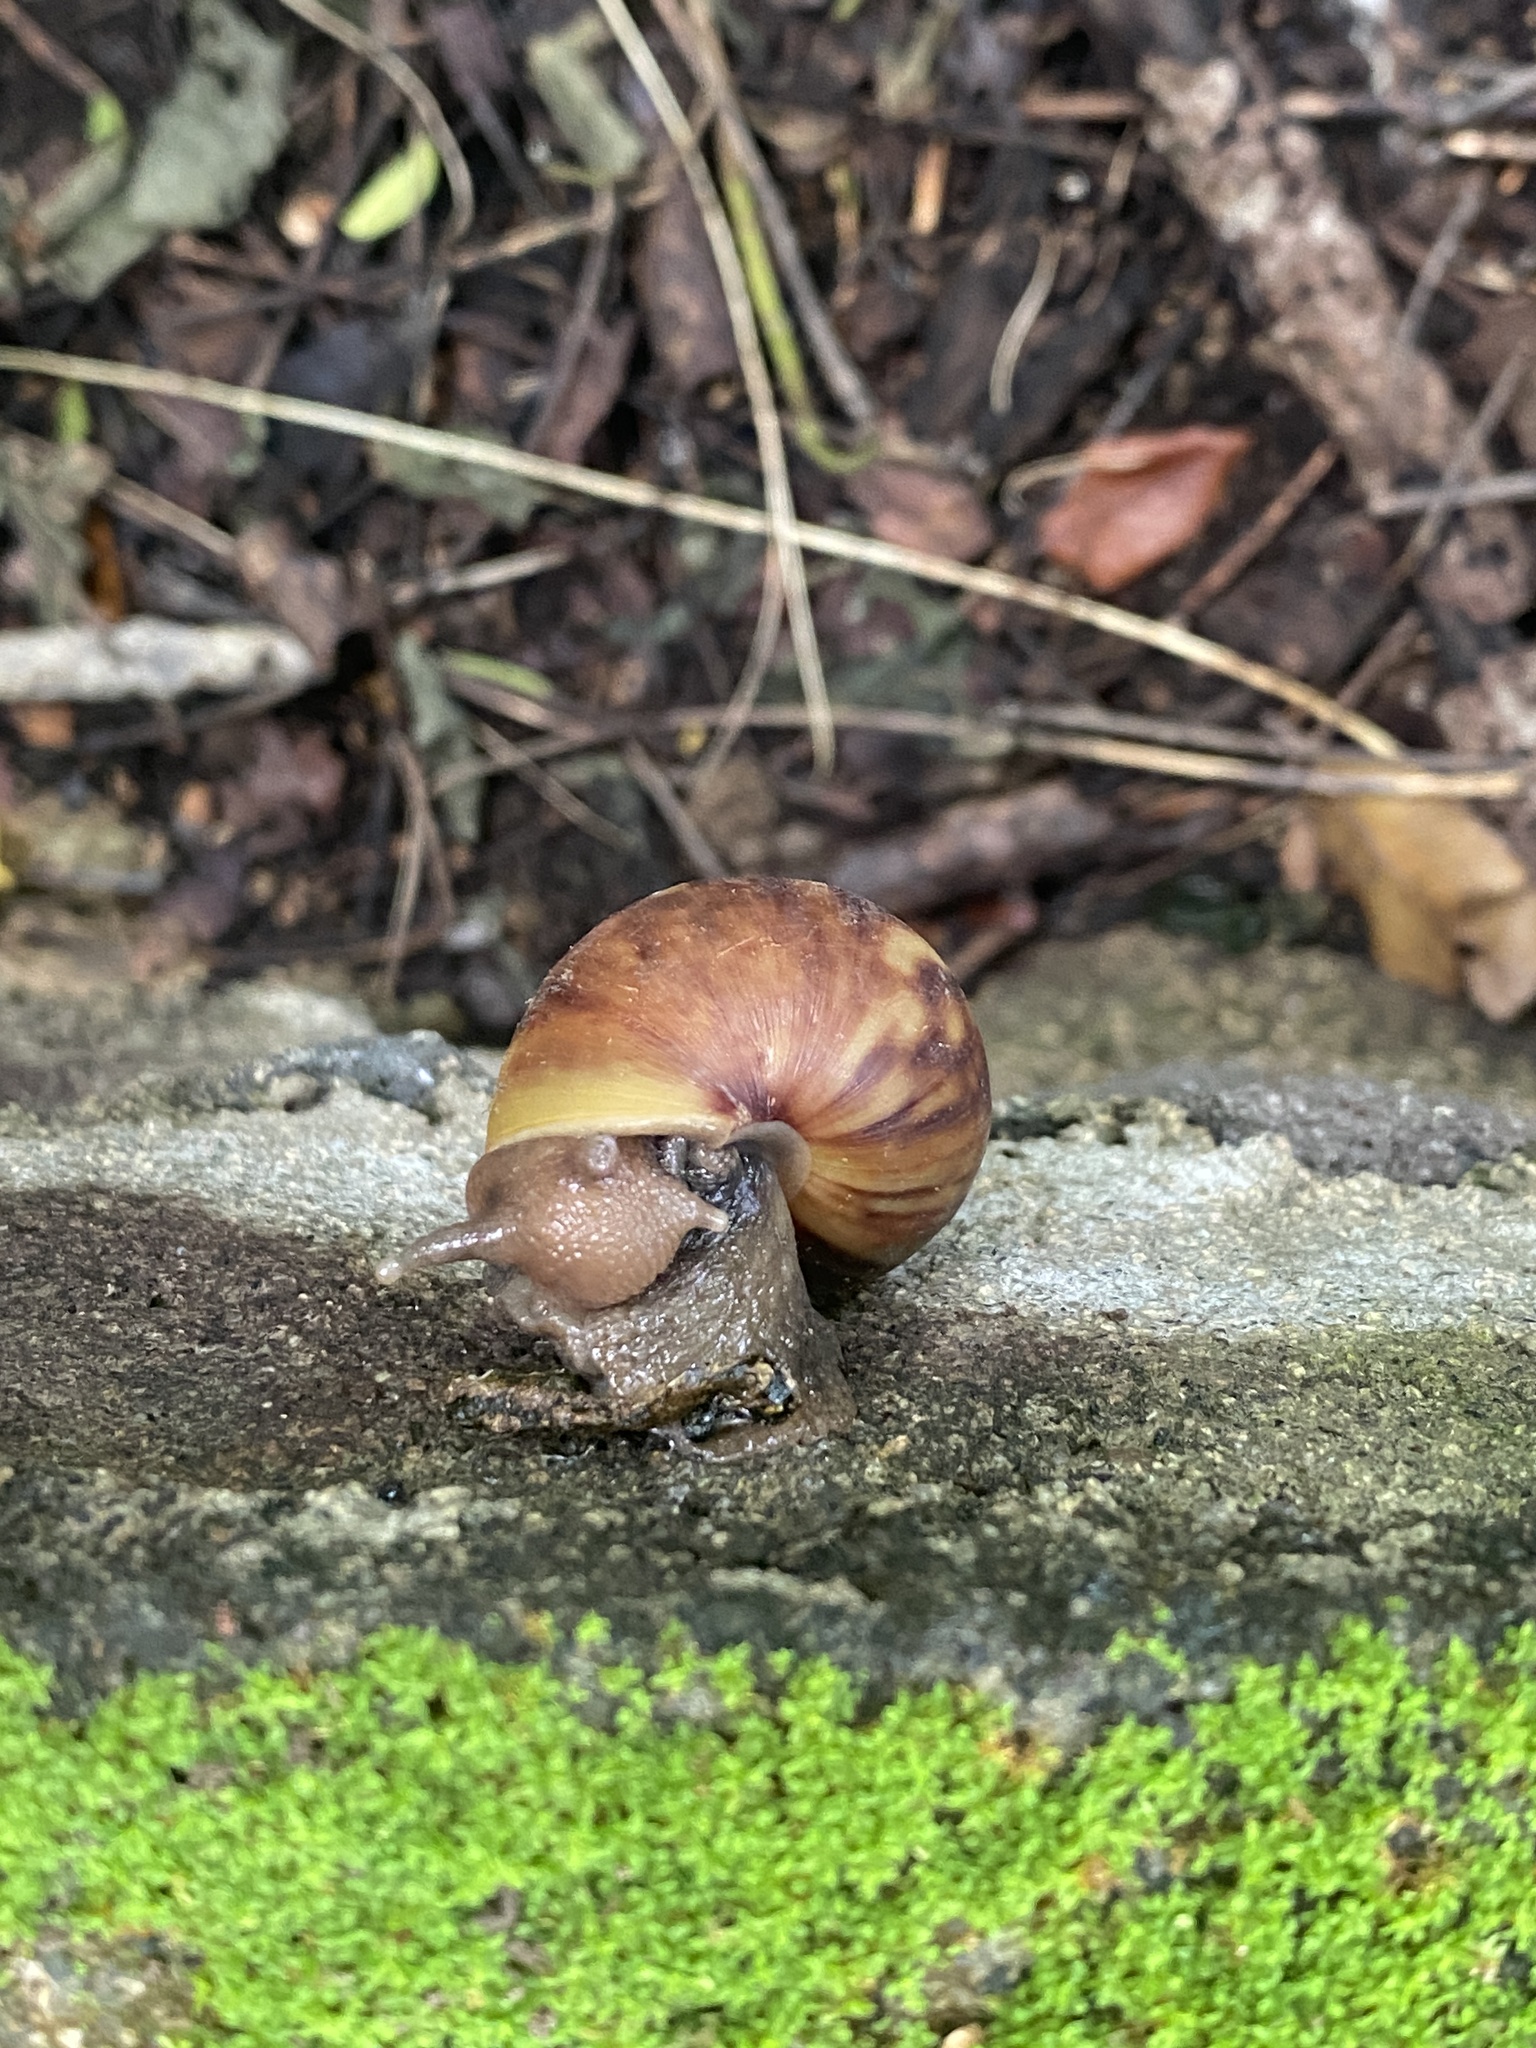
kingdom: Animalia
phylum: Mollusca
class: Gastropoda
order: Stylommatophora
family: Achatinidae
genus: Lissachatina
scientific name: Lissachatina fulica
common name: Giant african snail
